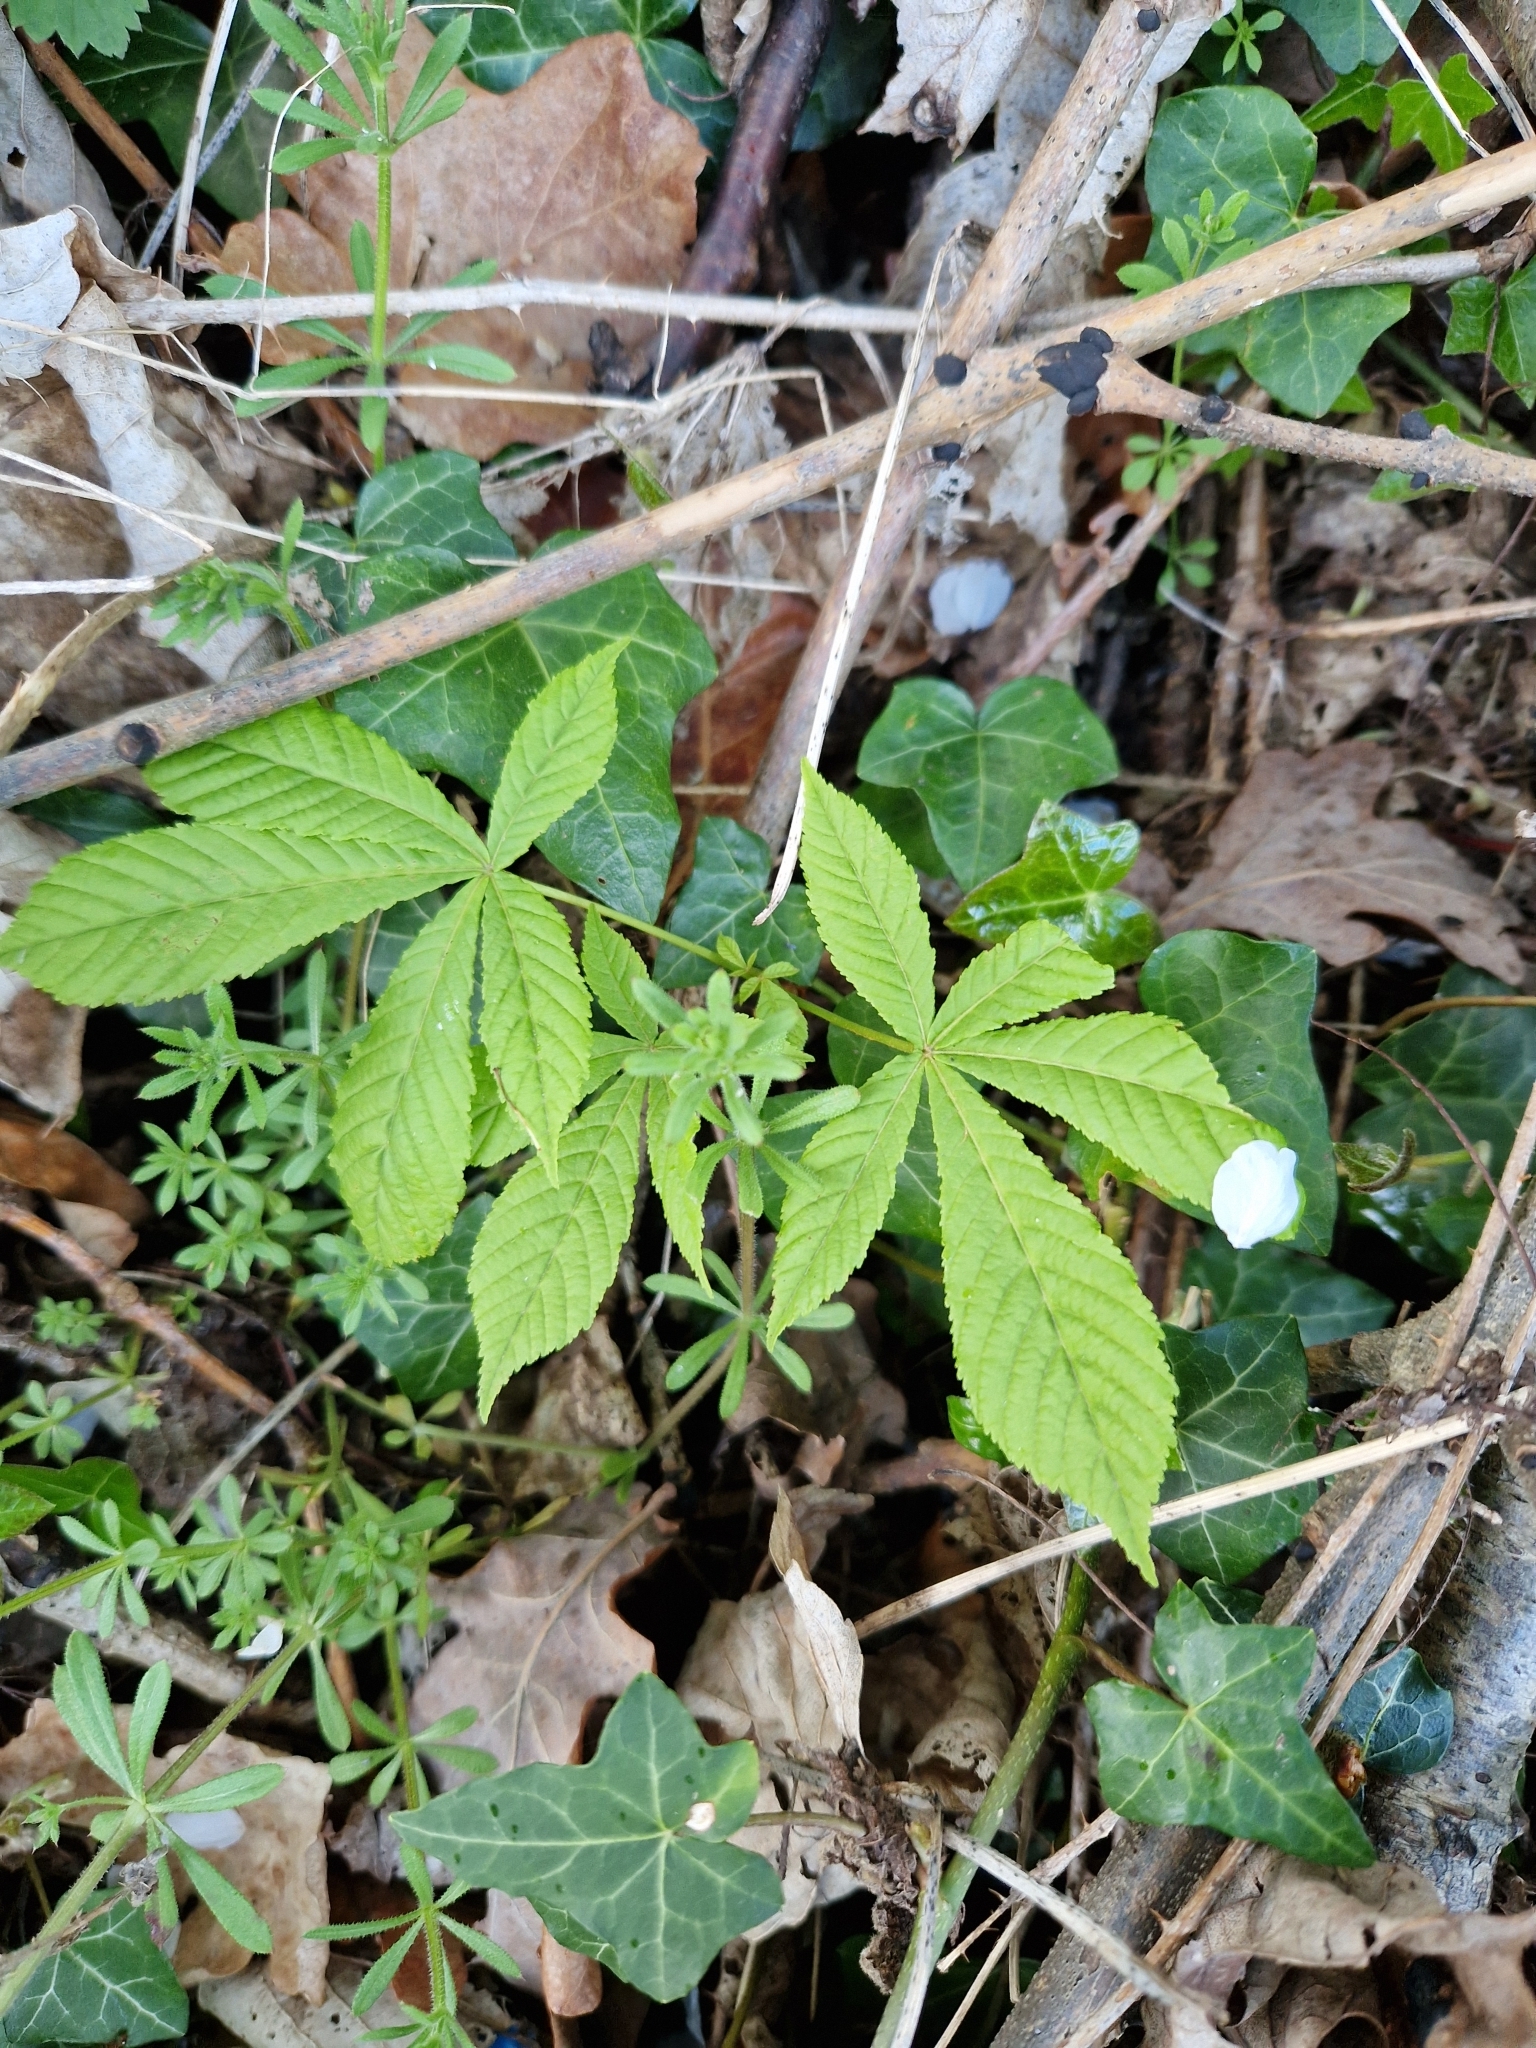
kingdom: Plantae
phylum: Tracheophyta
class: Magnoliopsida
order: Sapindales
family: Sapindaceae
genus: Aesculus
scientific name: Aesculus hippocastanum
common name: Horse-chestnut
